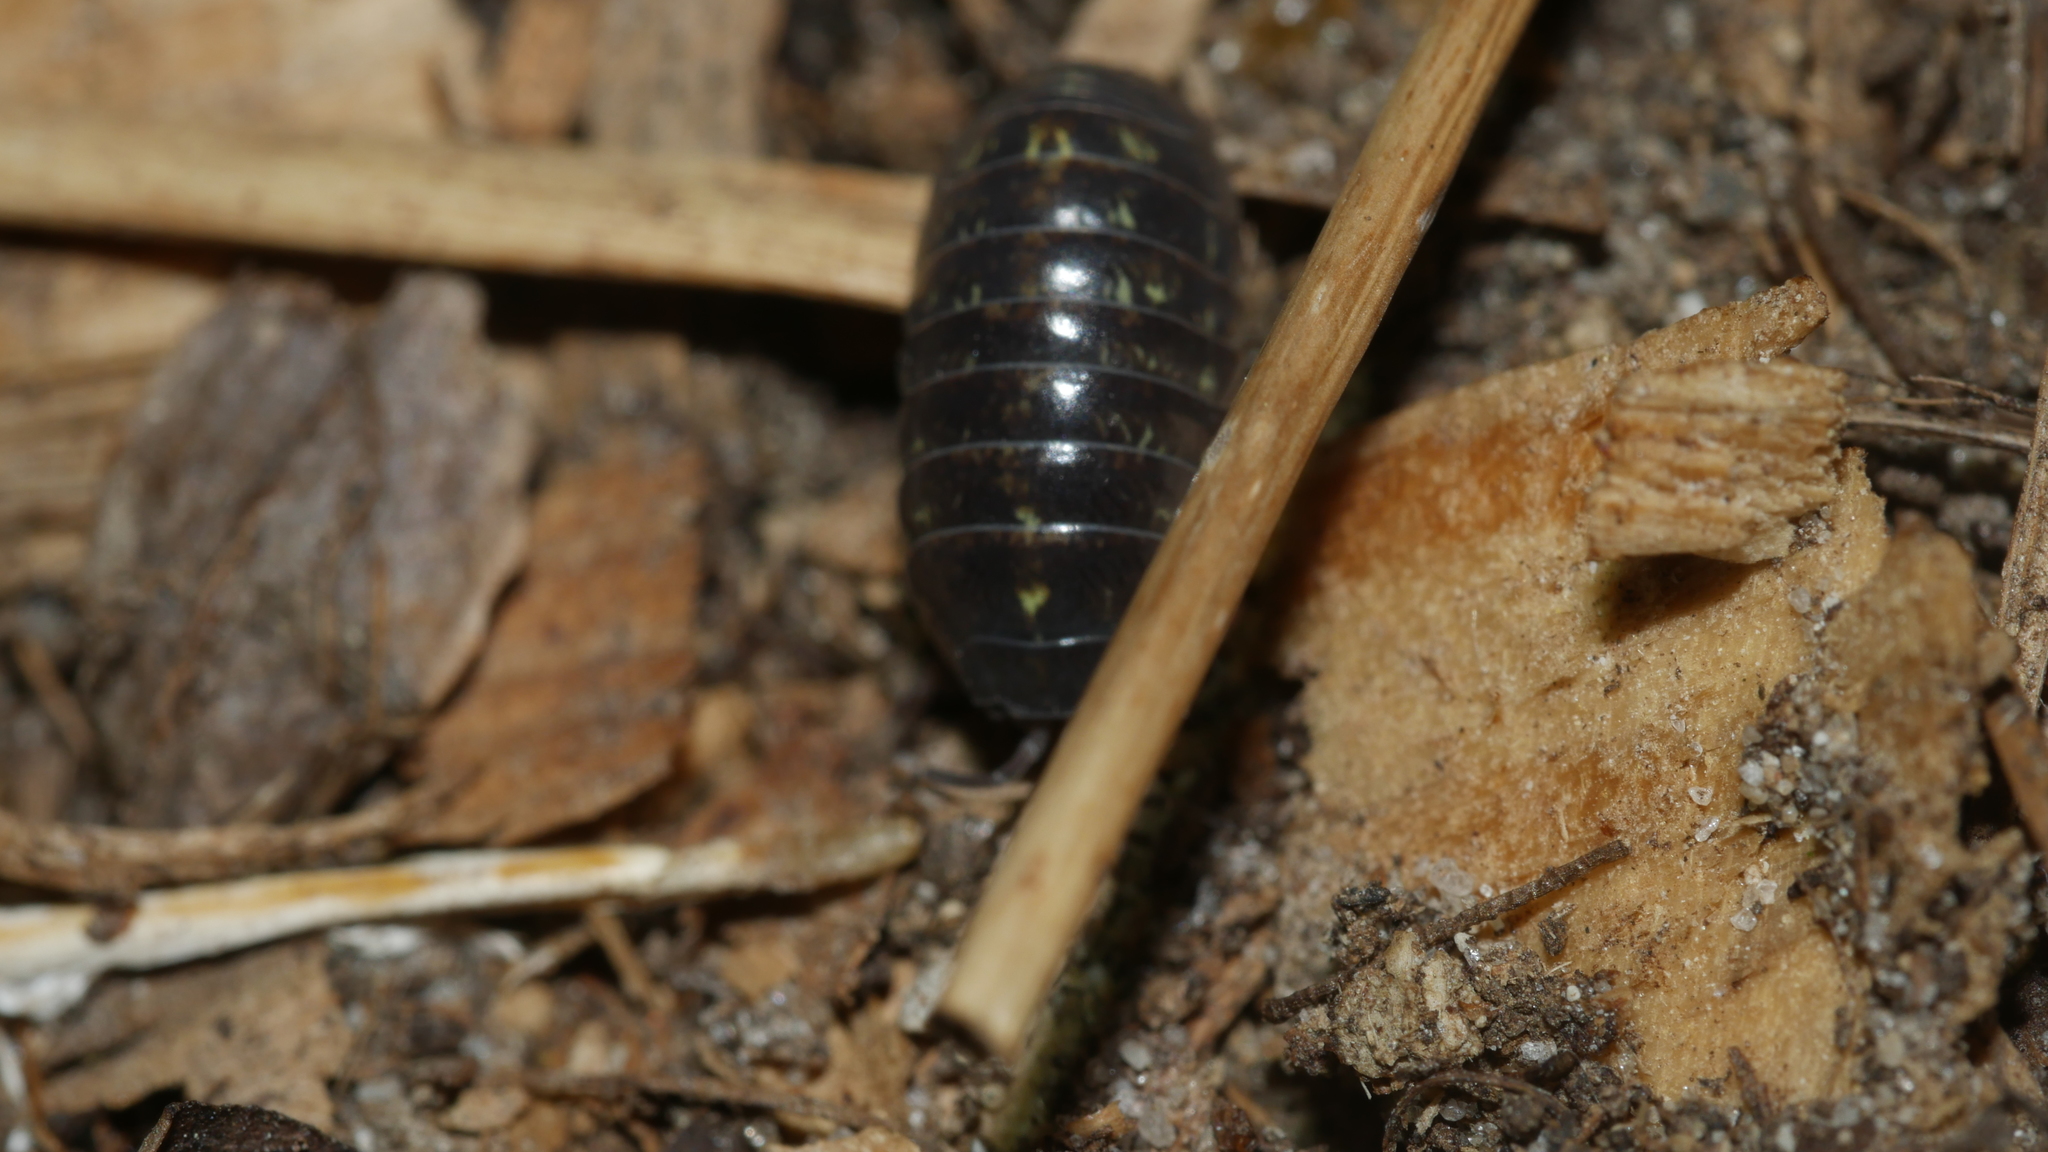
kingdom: Animalia
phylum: Arthropoda
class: Malacostraca
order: Isopoda
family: Armadillidiidae
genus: Armadillidium
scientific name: Armadillidium vulgare
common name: Common pill woodlouse
